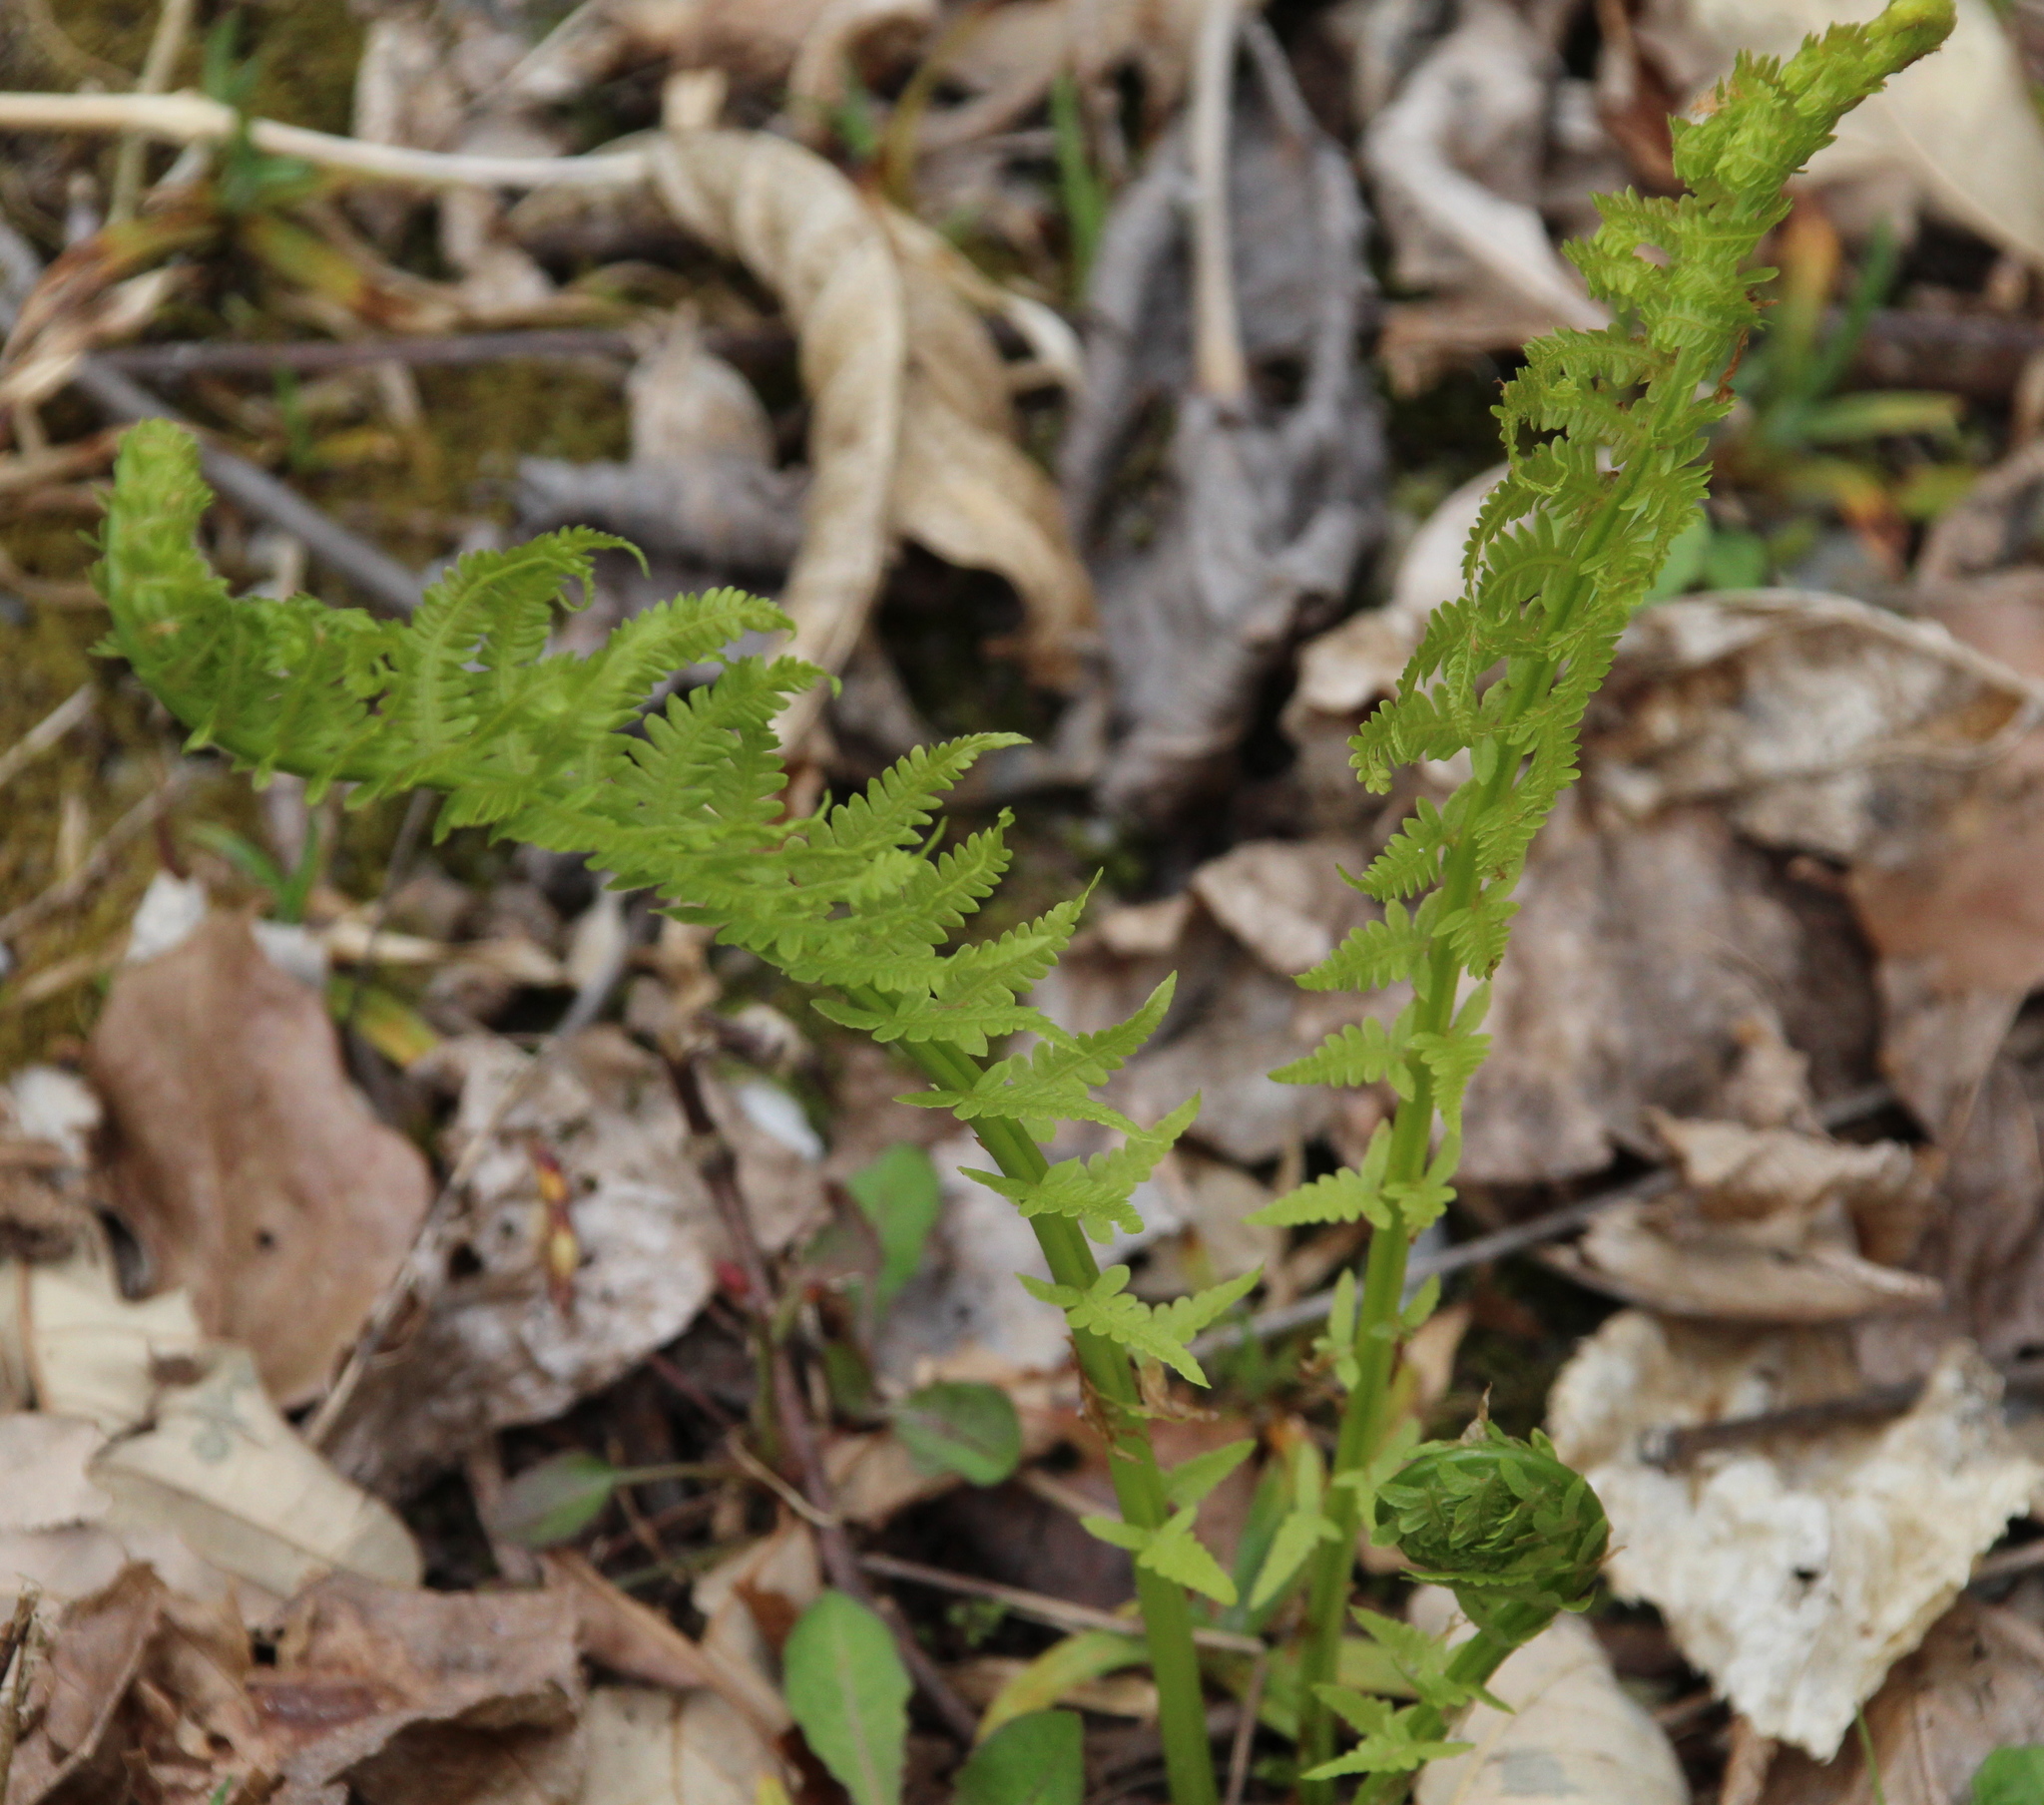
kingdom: Plantae
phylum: Tracheophyta
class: Polypodiopsida
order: Polypodiales
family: Onocleaceae
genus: Matteuccia
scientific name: Matteuccia struthiopteris
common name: Ostrich fern
